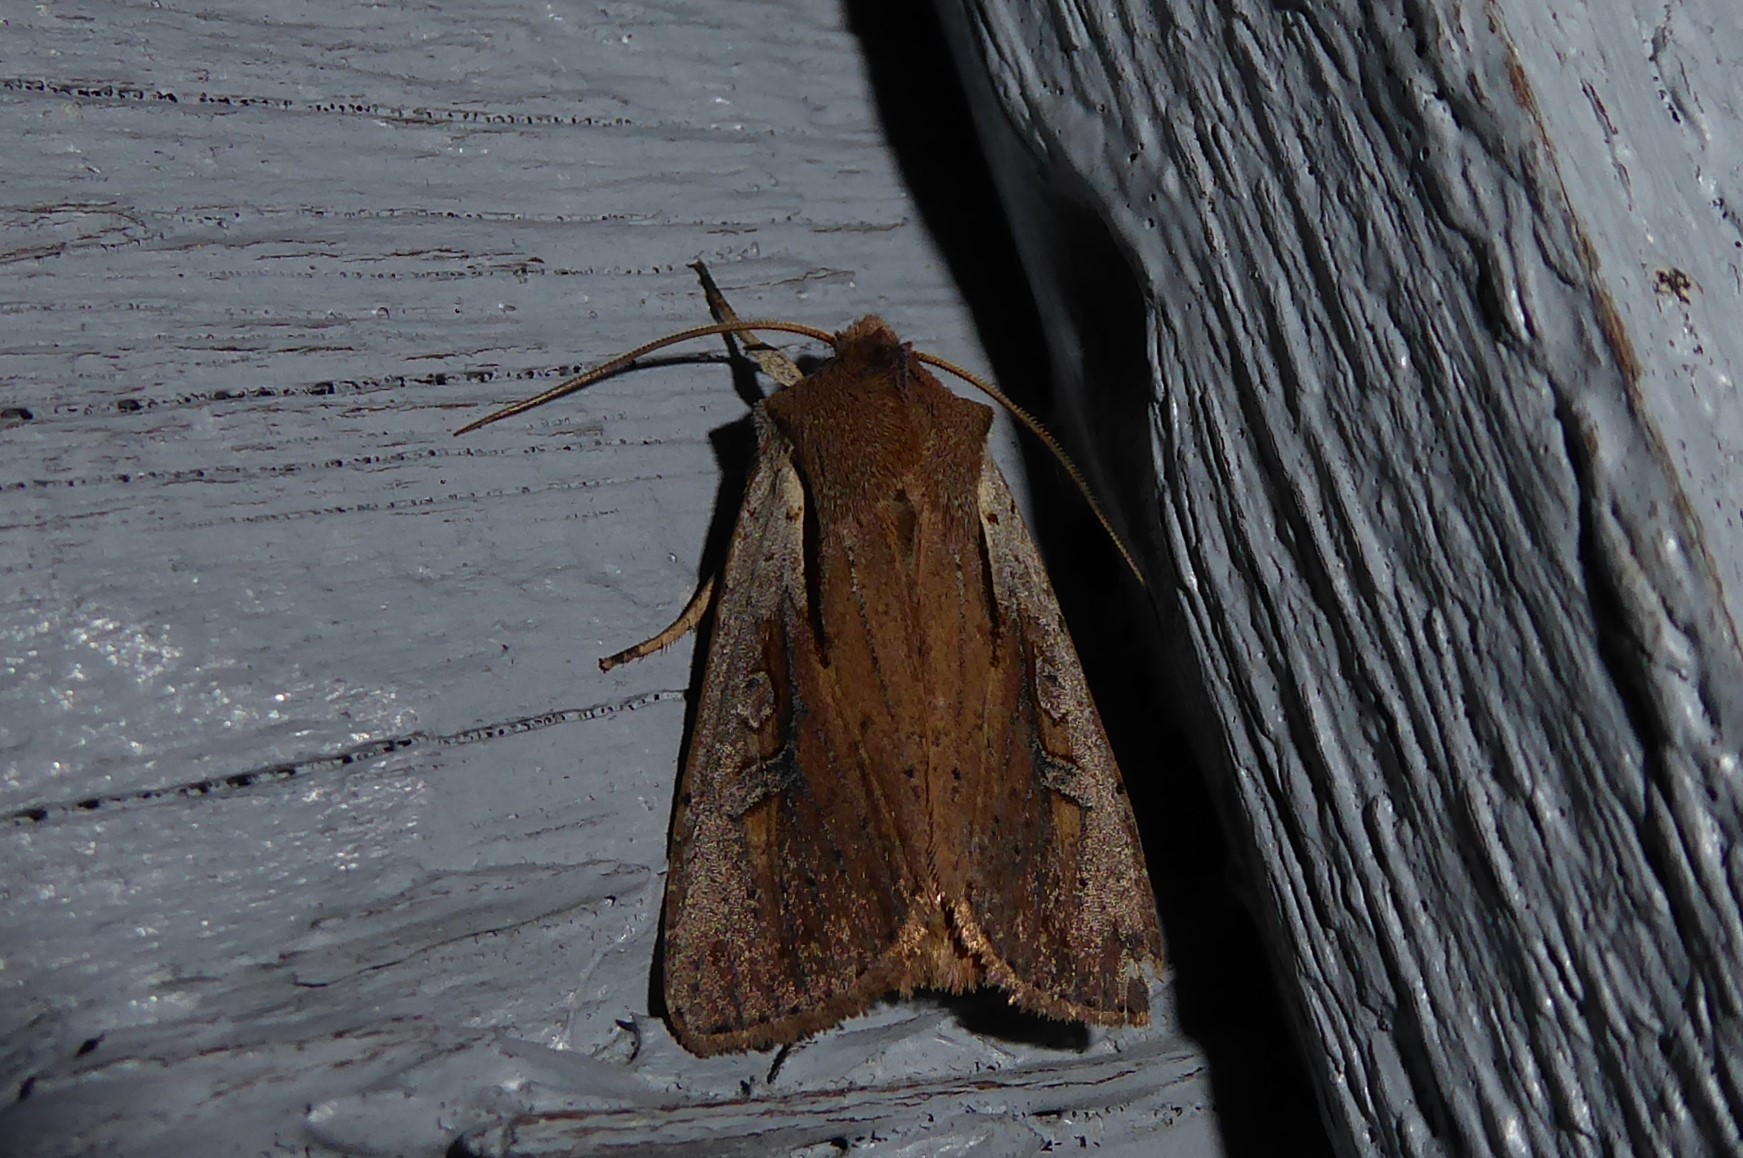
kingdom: Animalia
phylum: Arthropoda
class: Insecta
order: Lepidoptera
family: Noctuidae
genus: Ichneutica
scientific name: Ichneutica atristriga
